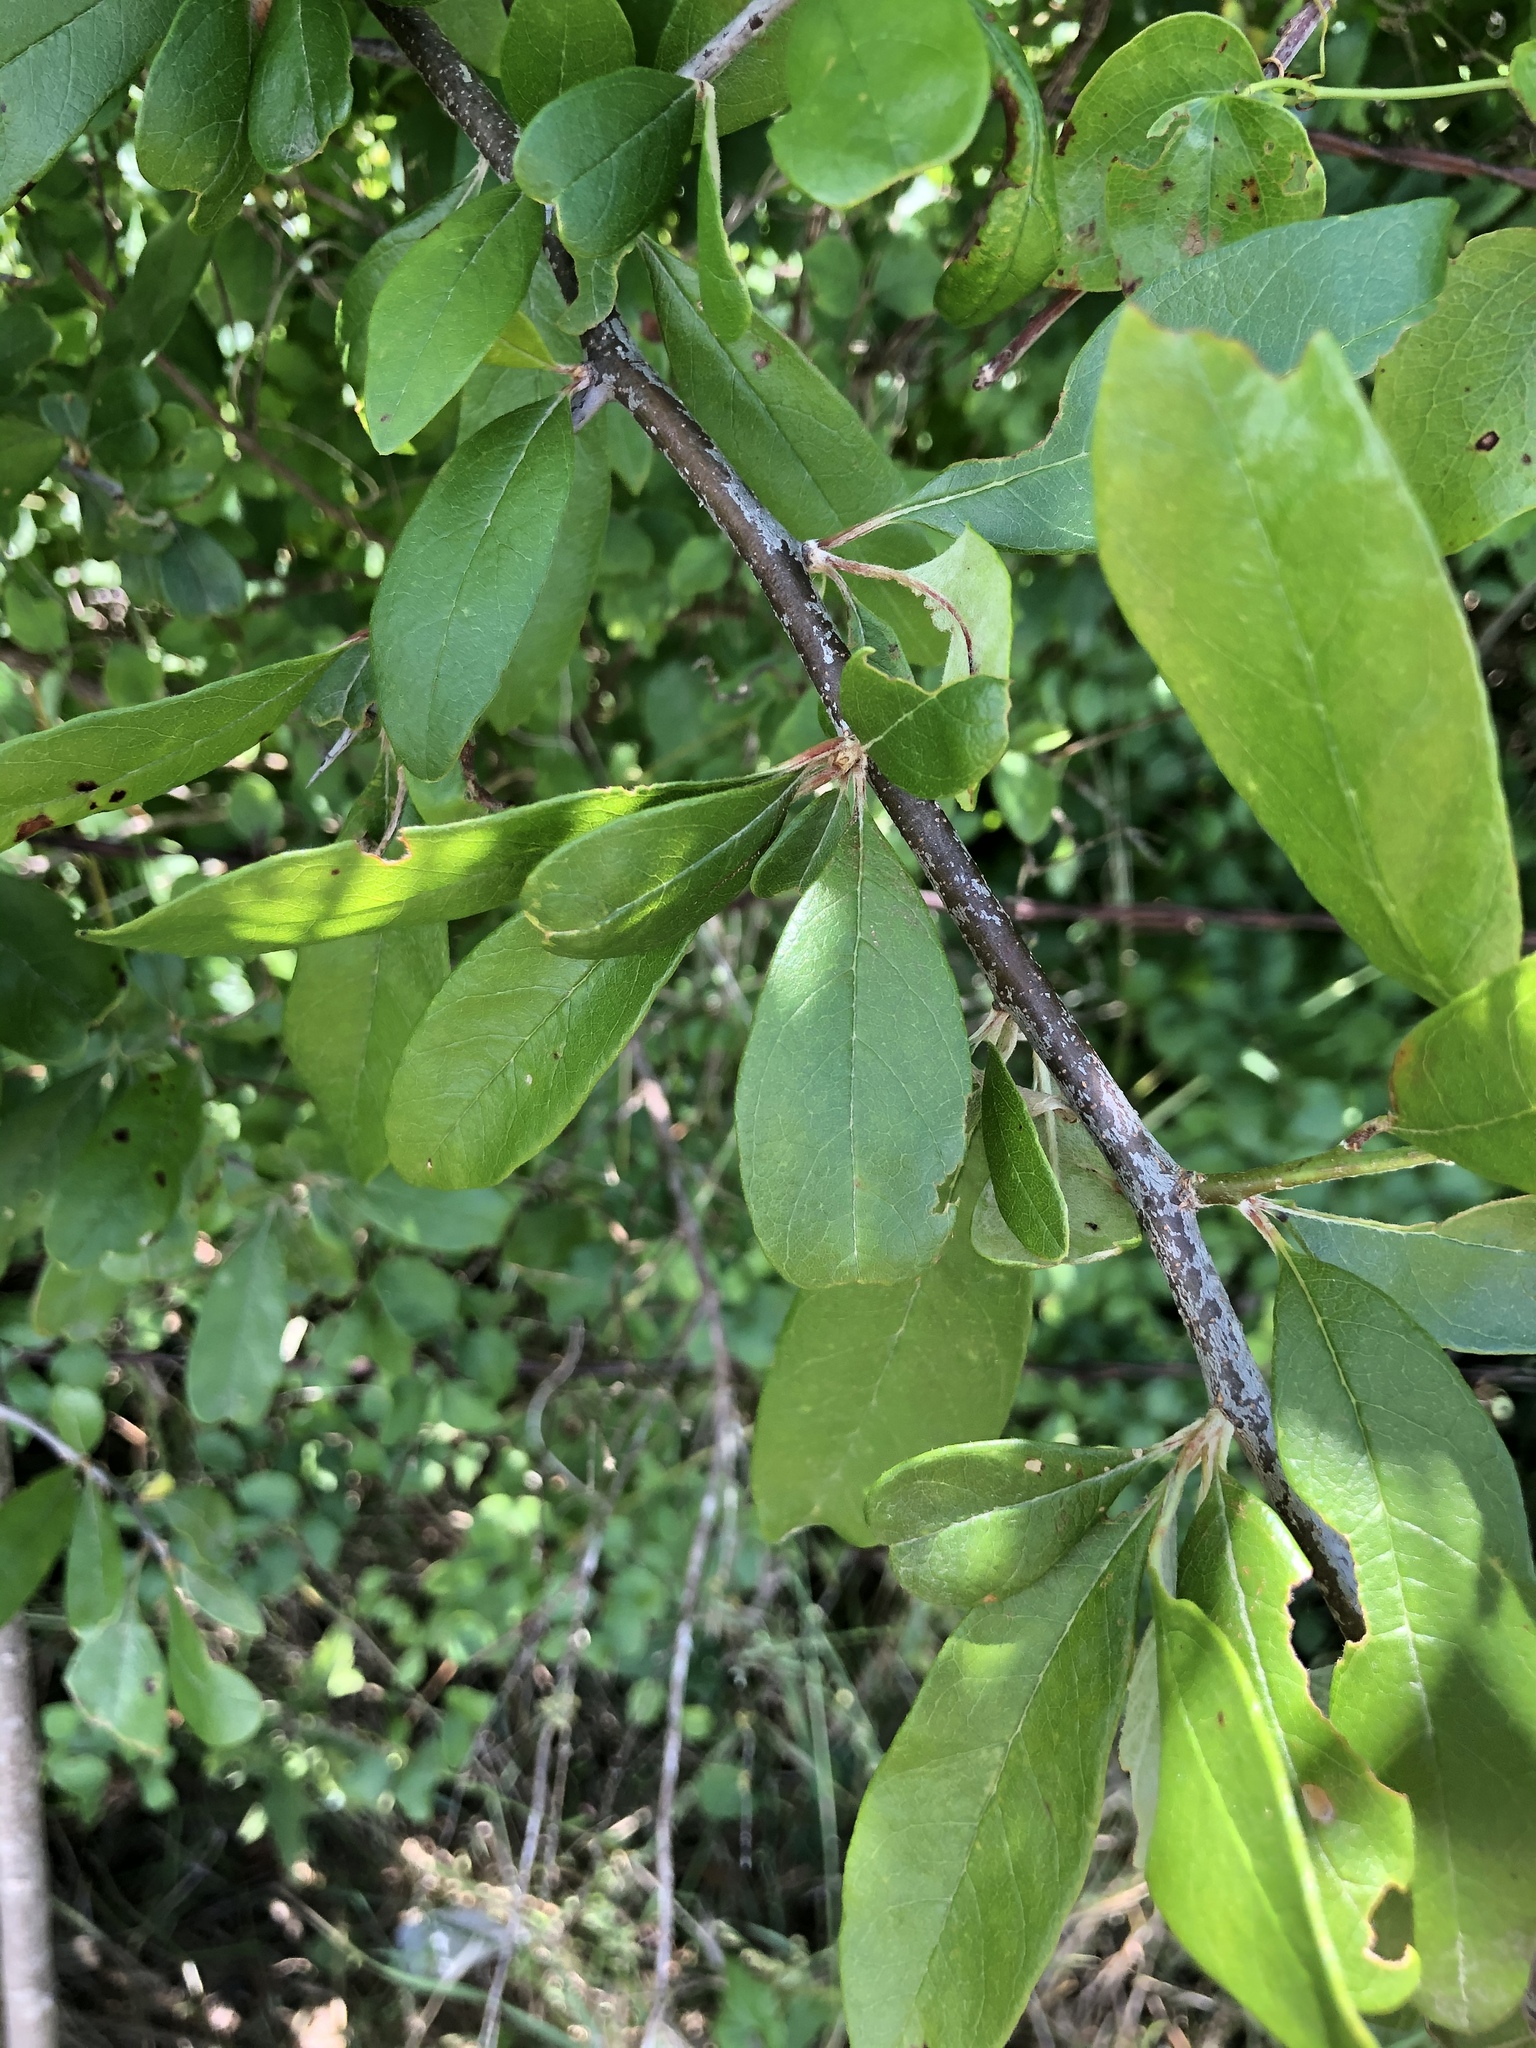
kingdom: Plantae
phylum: Tracheophyta
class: Magnoliopsida
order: Ericales
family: Sapotaceae
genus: Sideroxylon
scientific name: Sideroxylon lanuginosum
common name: Chittamwood
